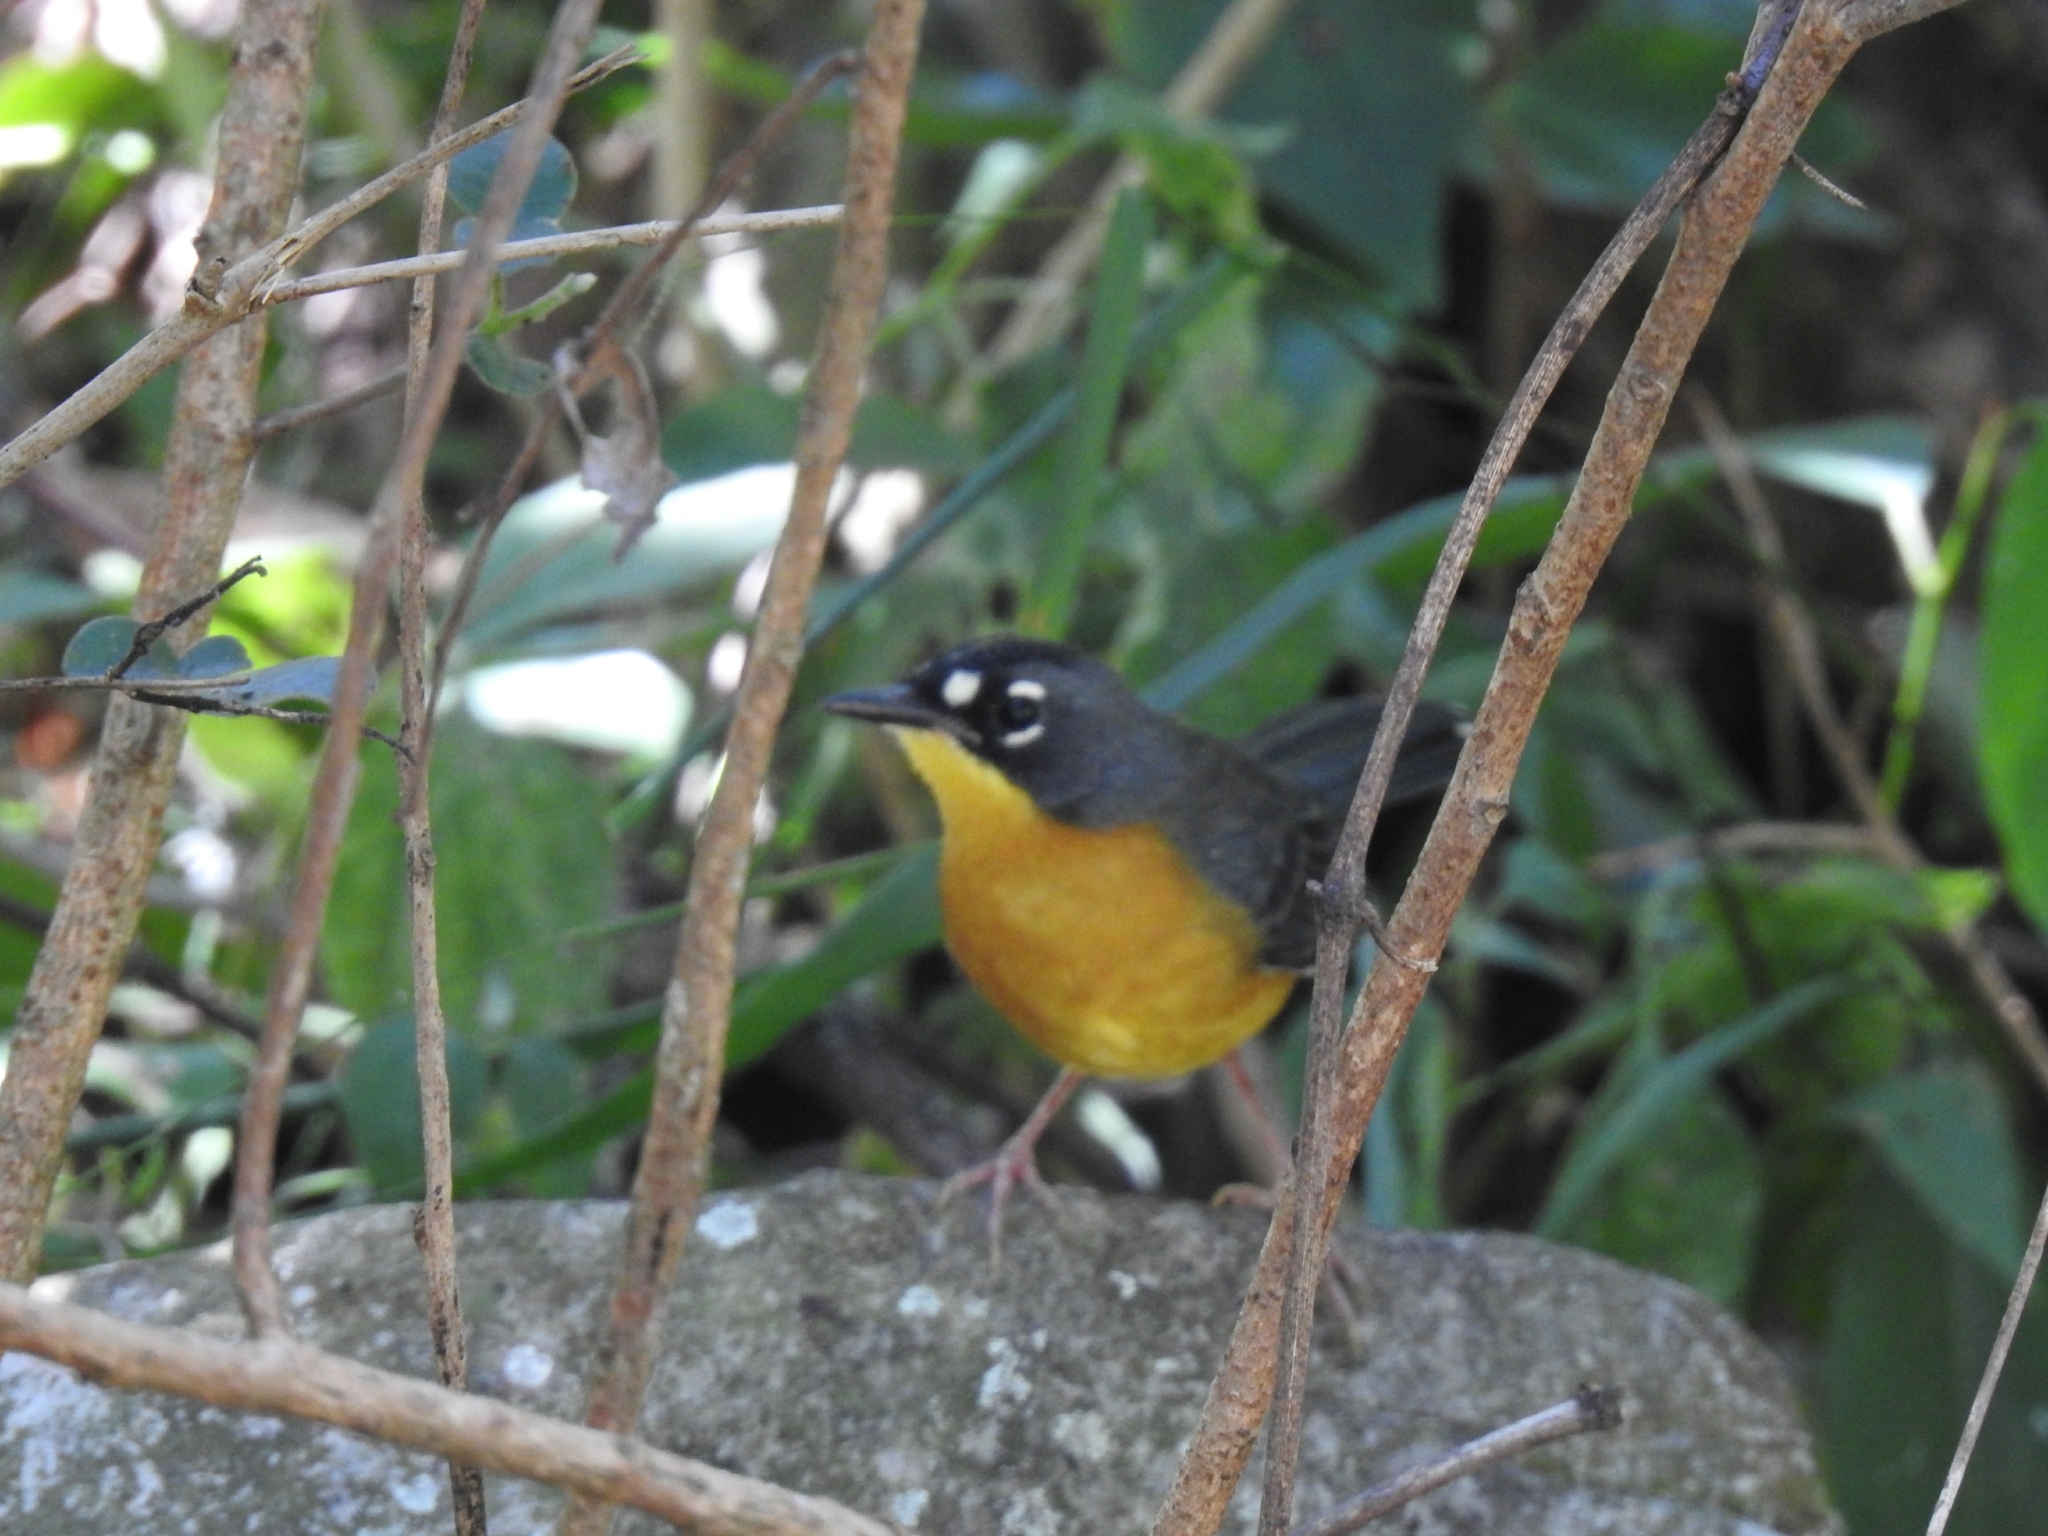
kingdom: Animalia
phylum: Chordata
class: Aves
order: Passeriformes
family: Parulidae
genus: Basileuterus
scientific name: Basileuterus lachrymosus
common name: Fan-tailed warbler
